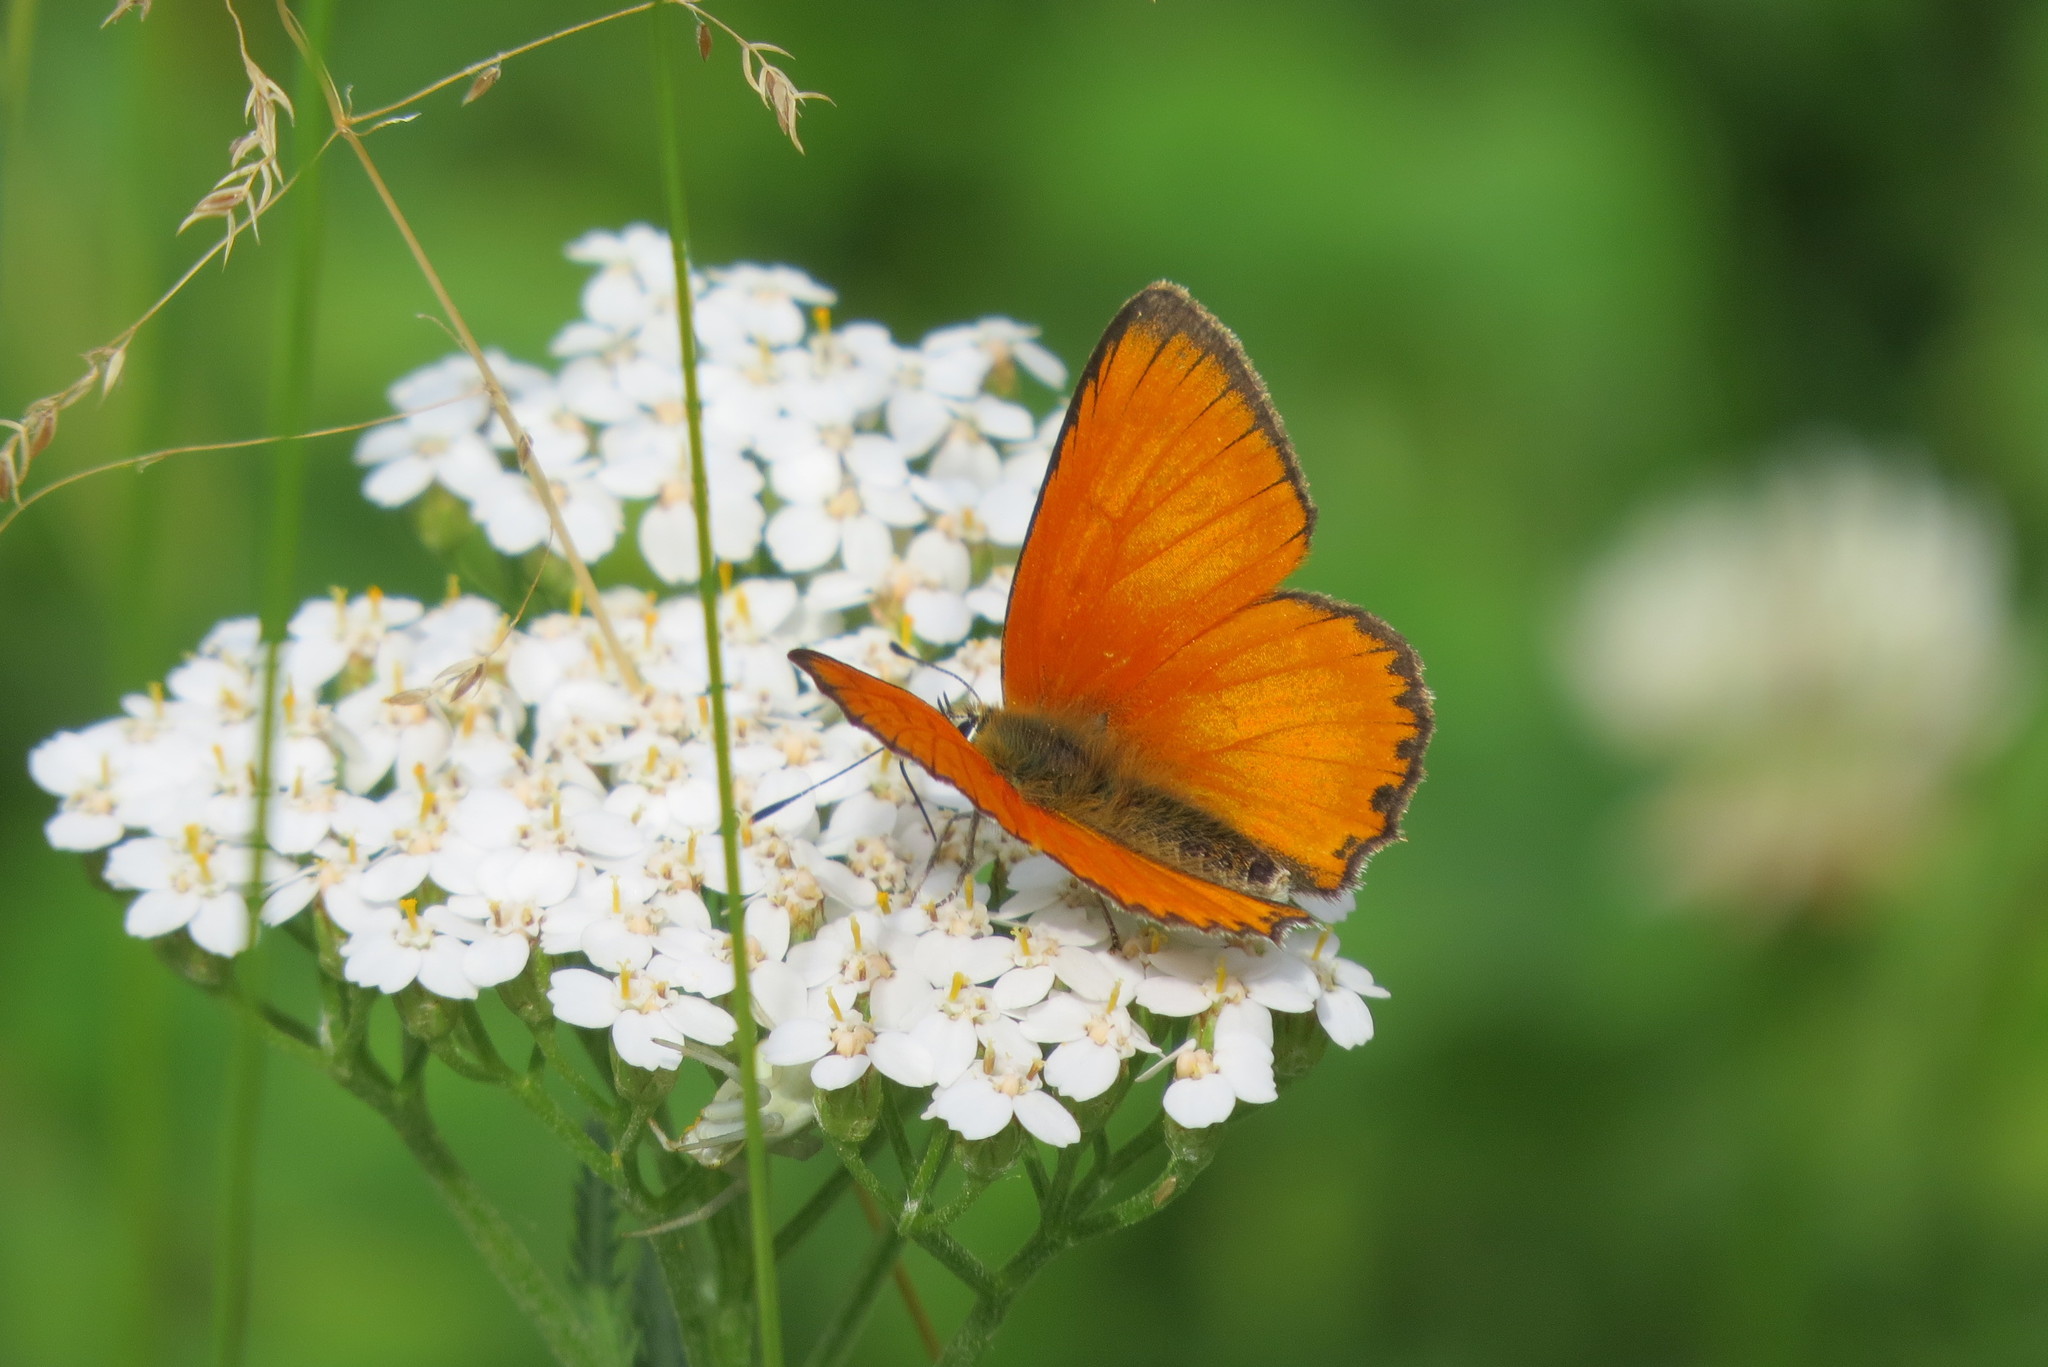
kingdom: Animalia
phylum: Arthropoda
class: Insecta
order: Lepidoptera
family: Lycaenidae
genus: Lycaena
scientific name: Lycaena virgaureae
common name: Scarce copper
